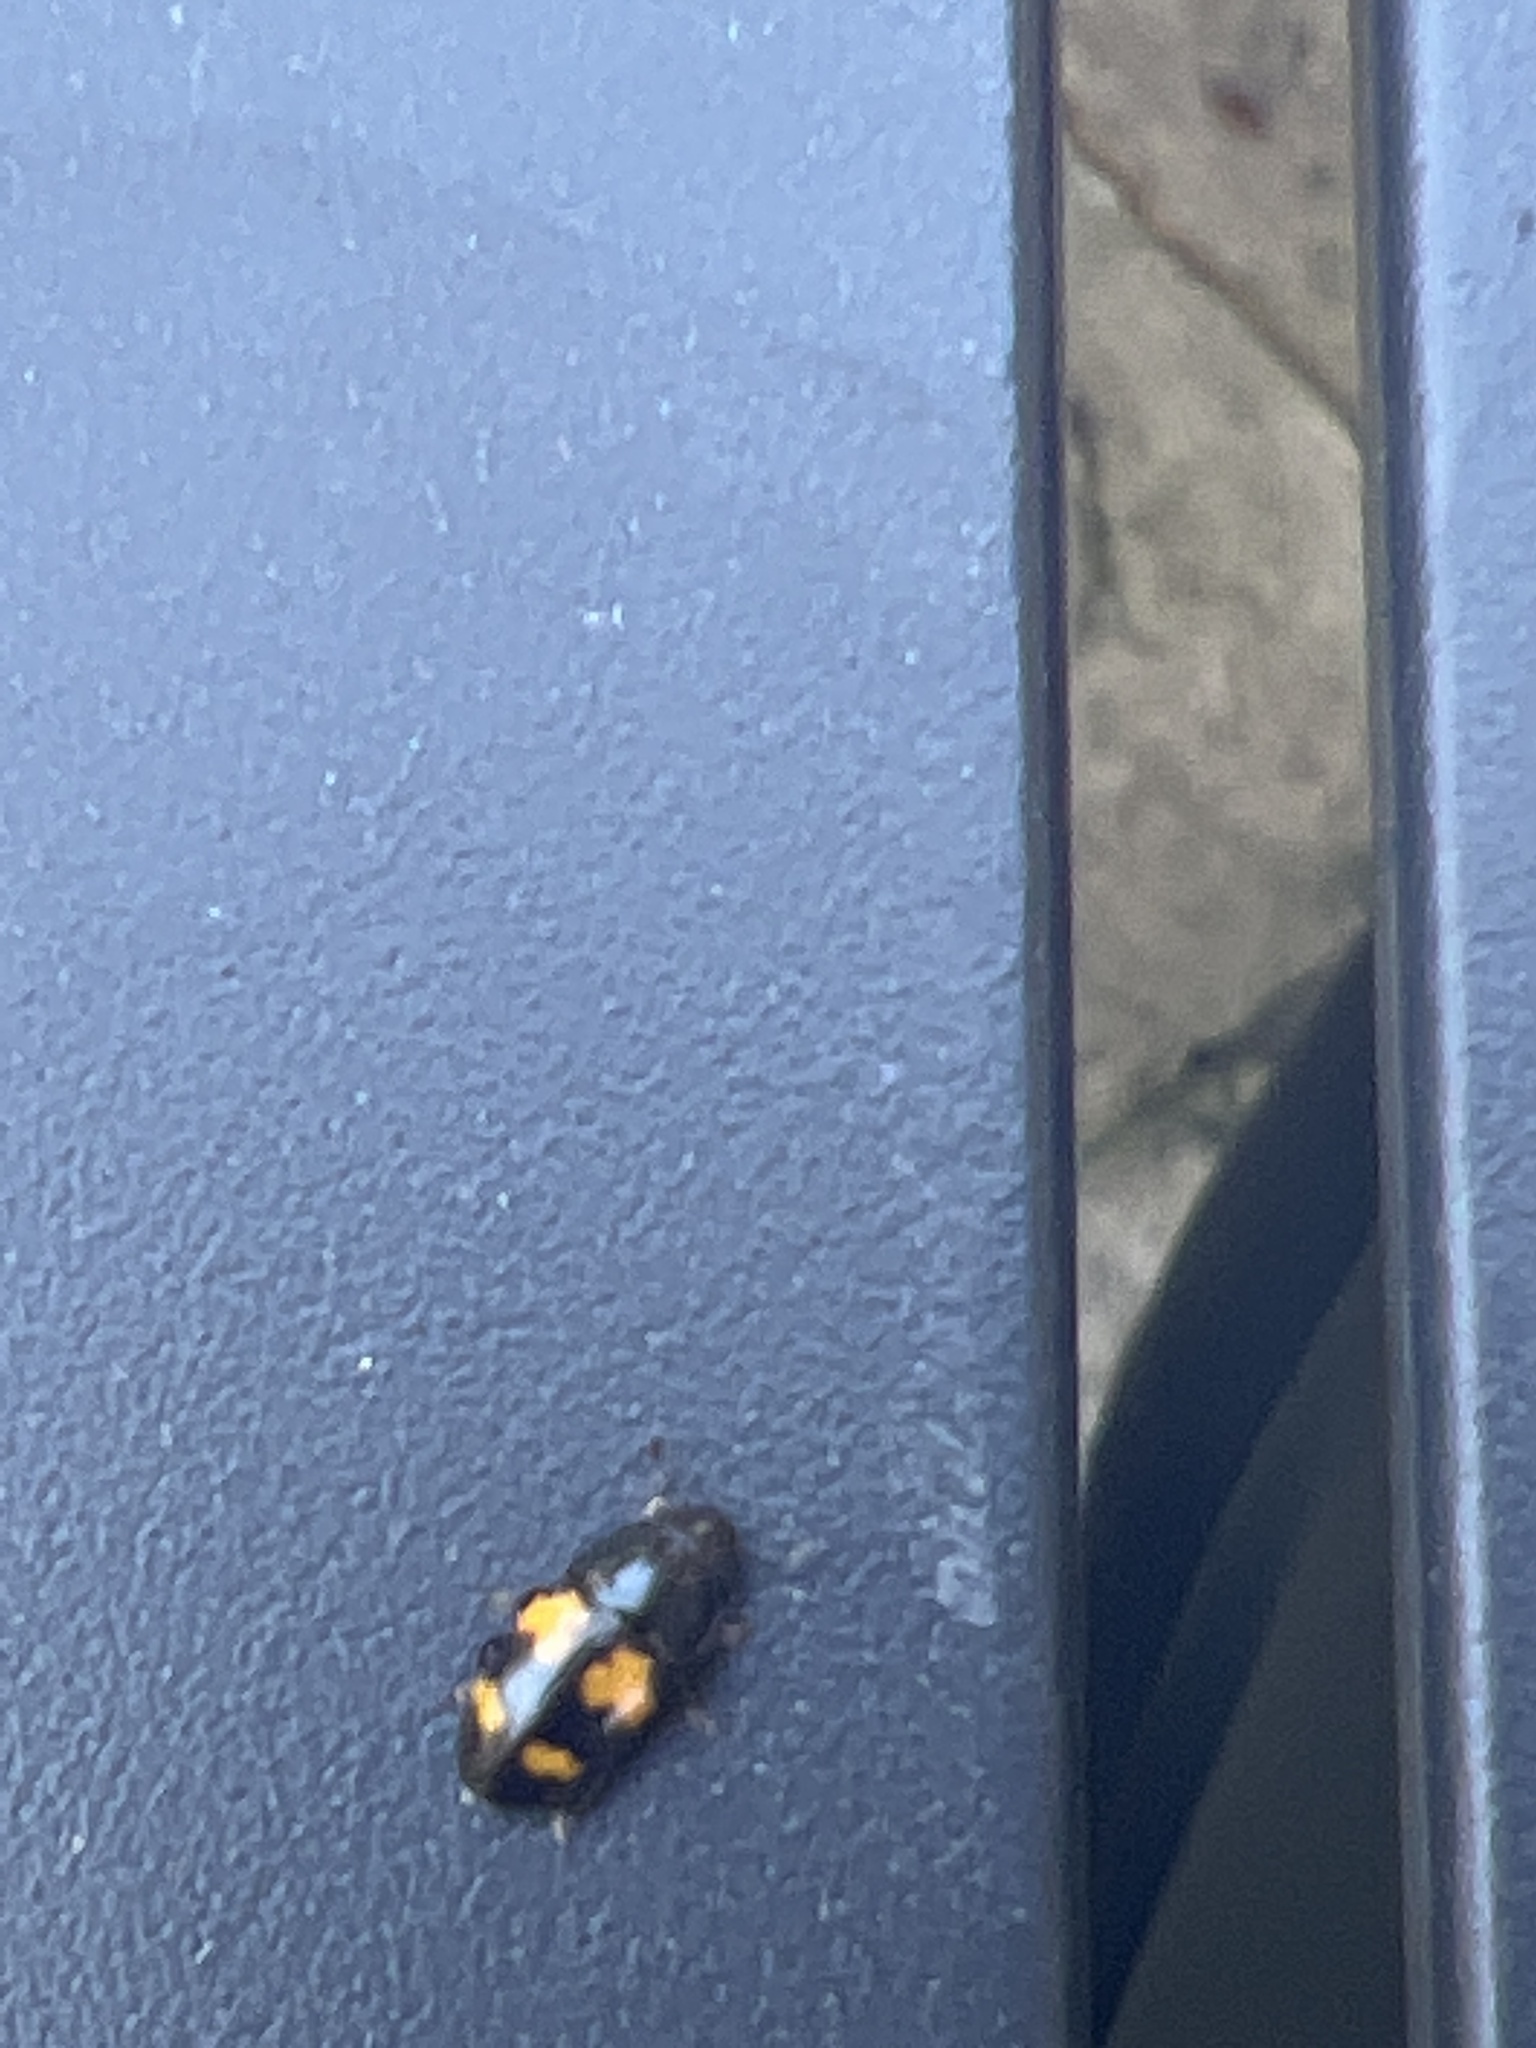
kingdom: Animalia
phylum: Arthropoda
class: Insecta
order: Coleoptera
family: Nitidulidae
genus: Glischrochilus
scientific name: Glischrochilus fasciatus
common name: Picnic beetle
